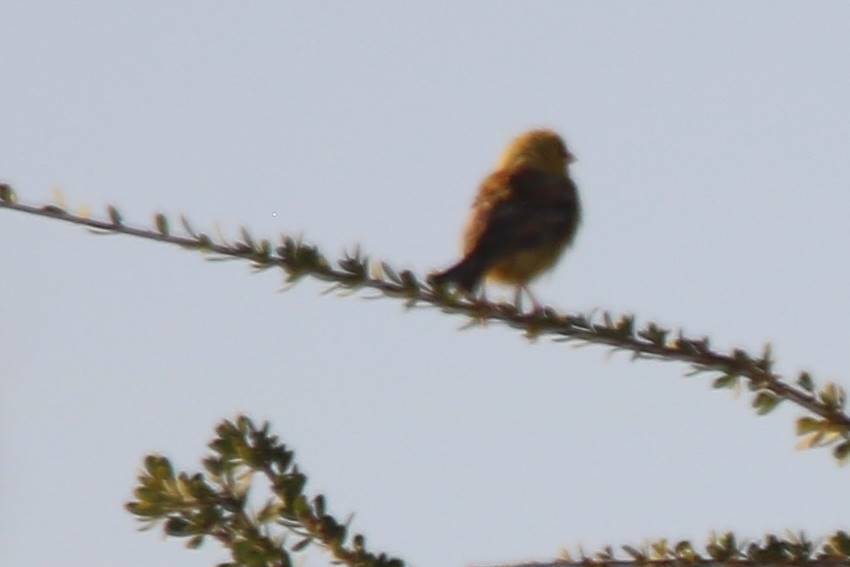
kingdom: Animalia
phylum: Chordata
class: Aves
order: Passeriformes
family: Passeridae
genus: Passer
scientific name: Passer luteus
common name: Sudan golden sparrow
